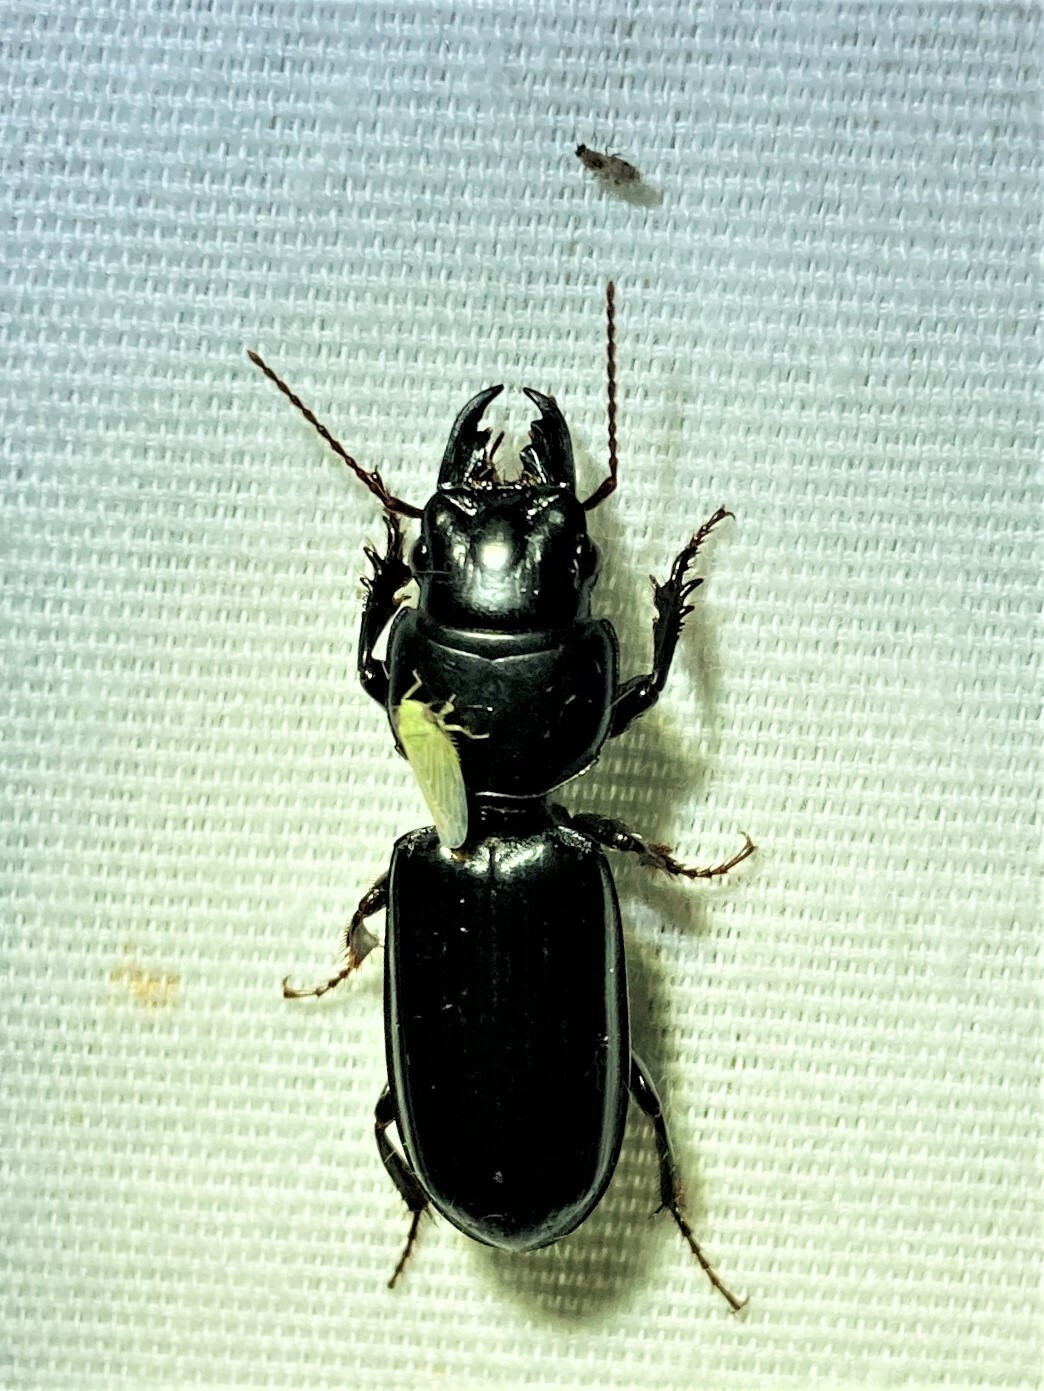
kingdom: Animalia
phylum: Arthropoda
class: Insecta
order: Coleoptera
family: Carabidae
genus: Scarites
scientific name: Scarites subterraneus
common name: Big-headed ground beetle
